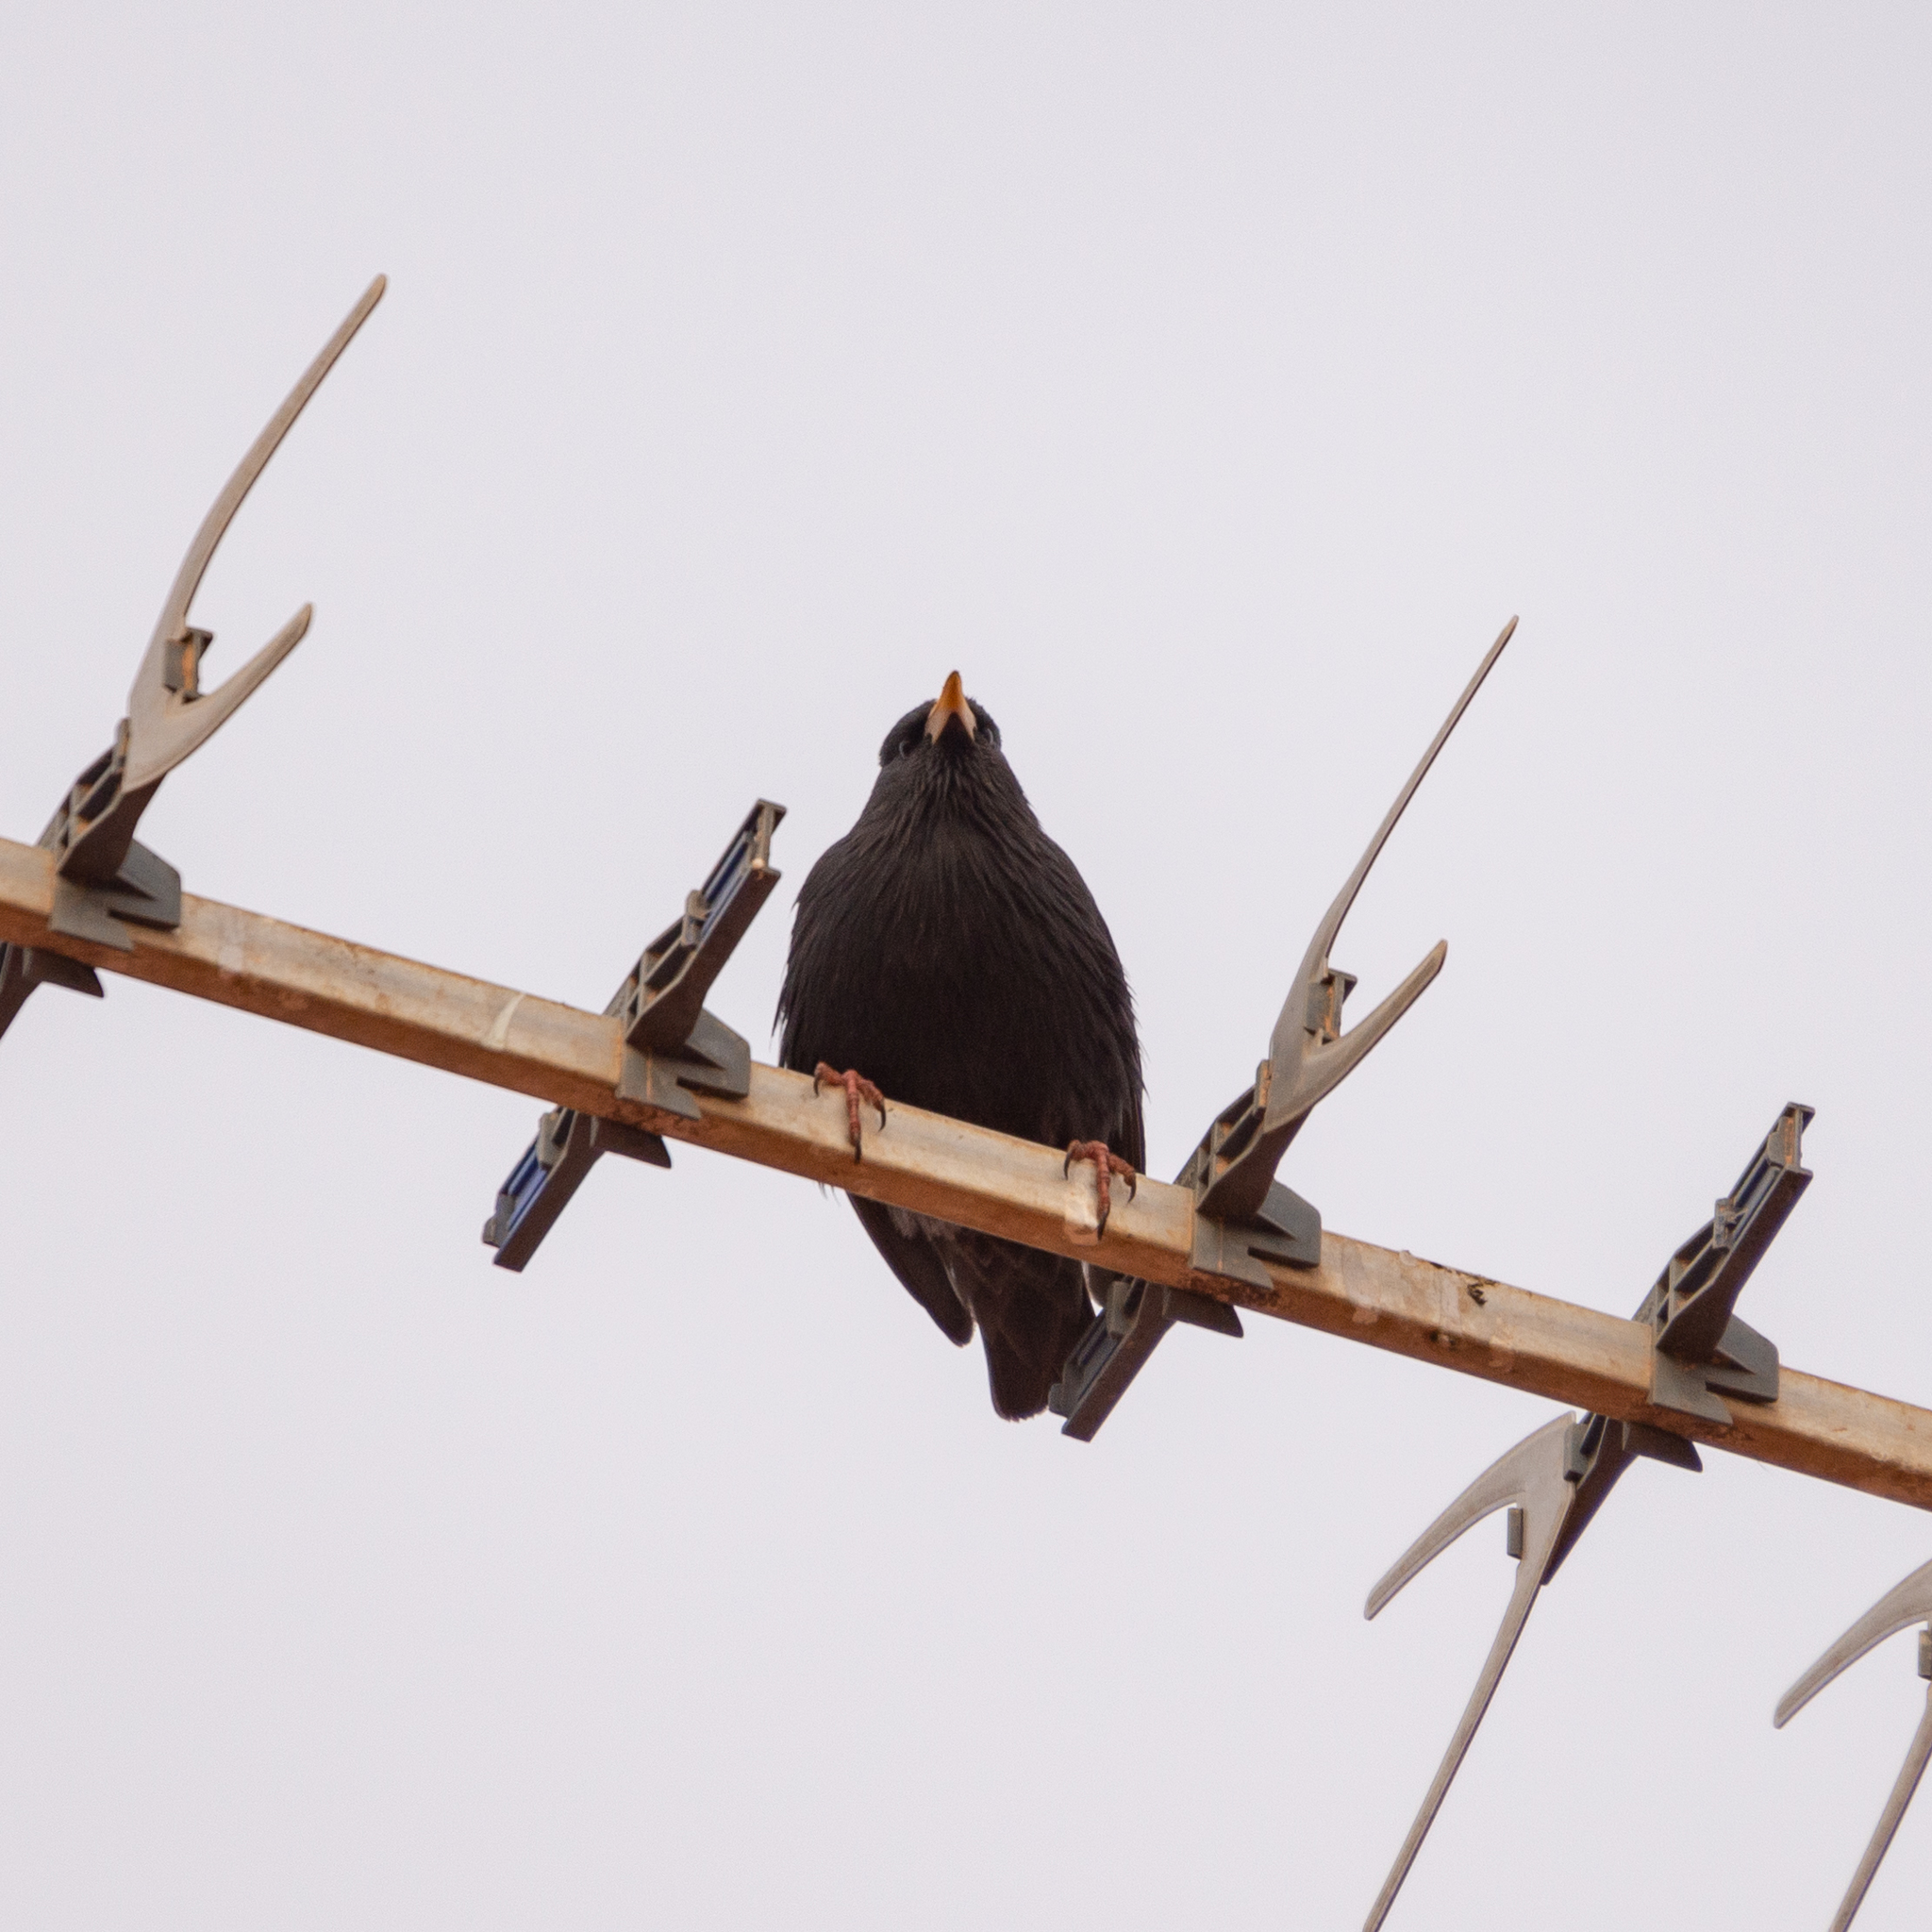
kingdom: Animalia
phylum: Chordata
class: Aves
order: Passeriformes
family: Sturnidae
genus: Sturnus
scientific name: Sturnus unicolor
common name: Spotless starling
